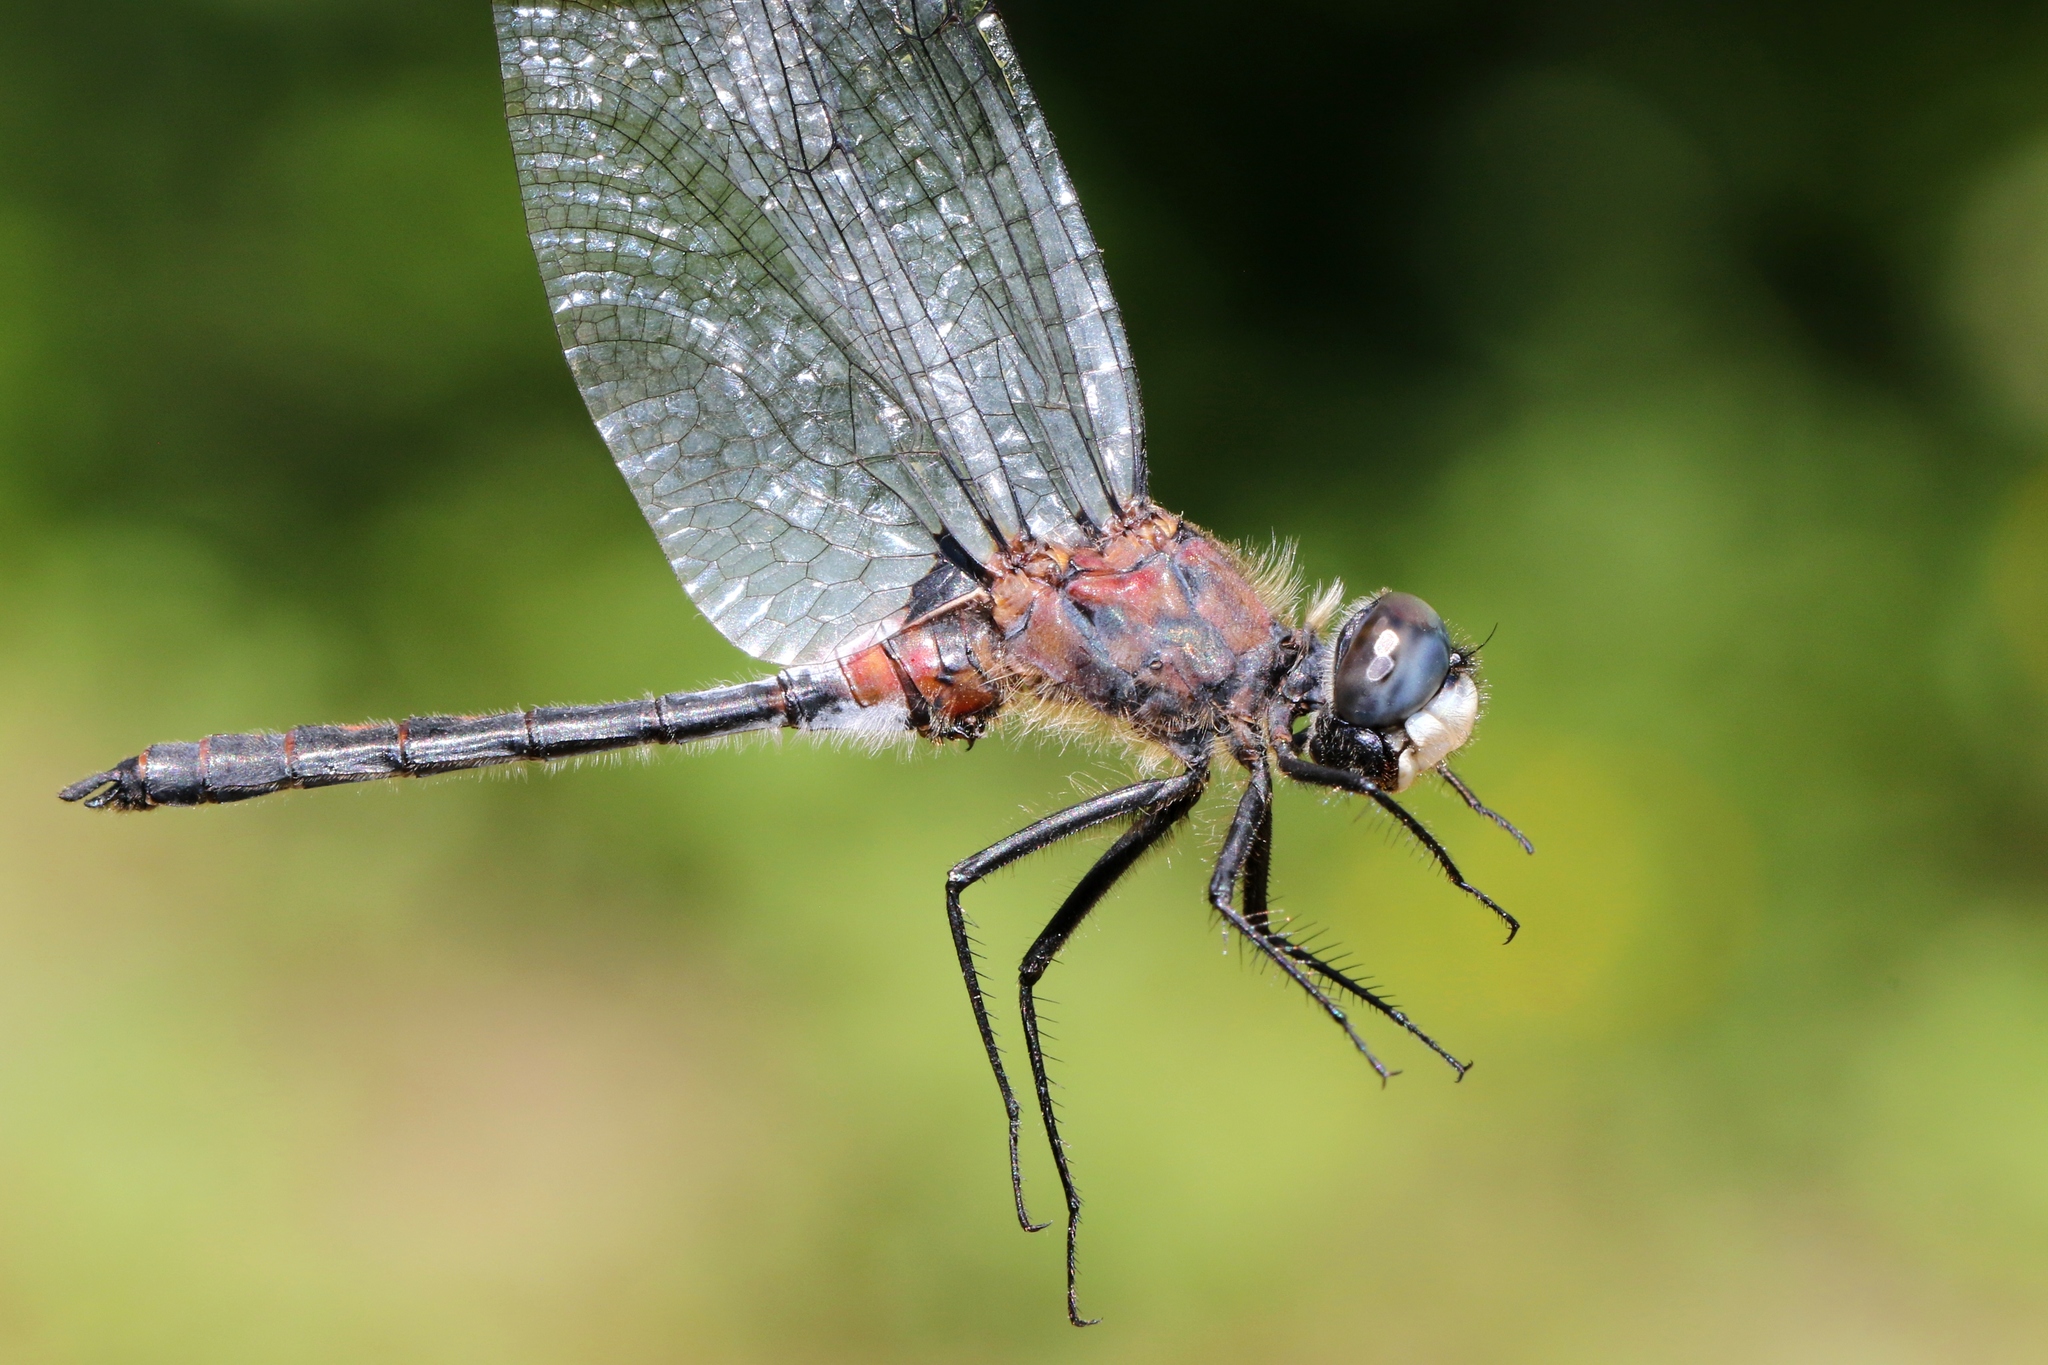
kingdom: Animalia
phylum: Arthropoda
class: Insecta
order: Odonata
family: Libellulidae
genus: Leucorrhinia
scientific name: Leucorrhinia proxima
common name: Belted whiteface
